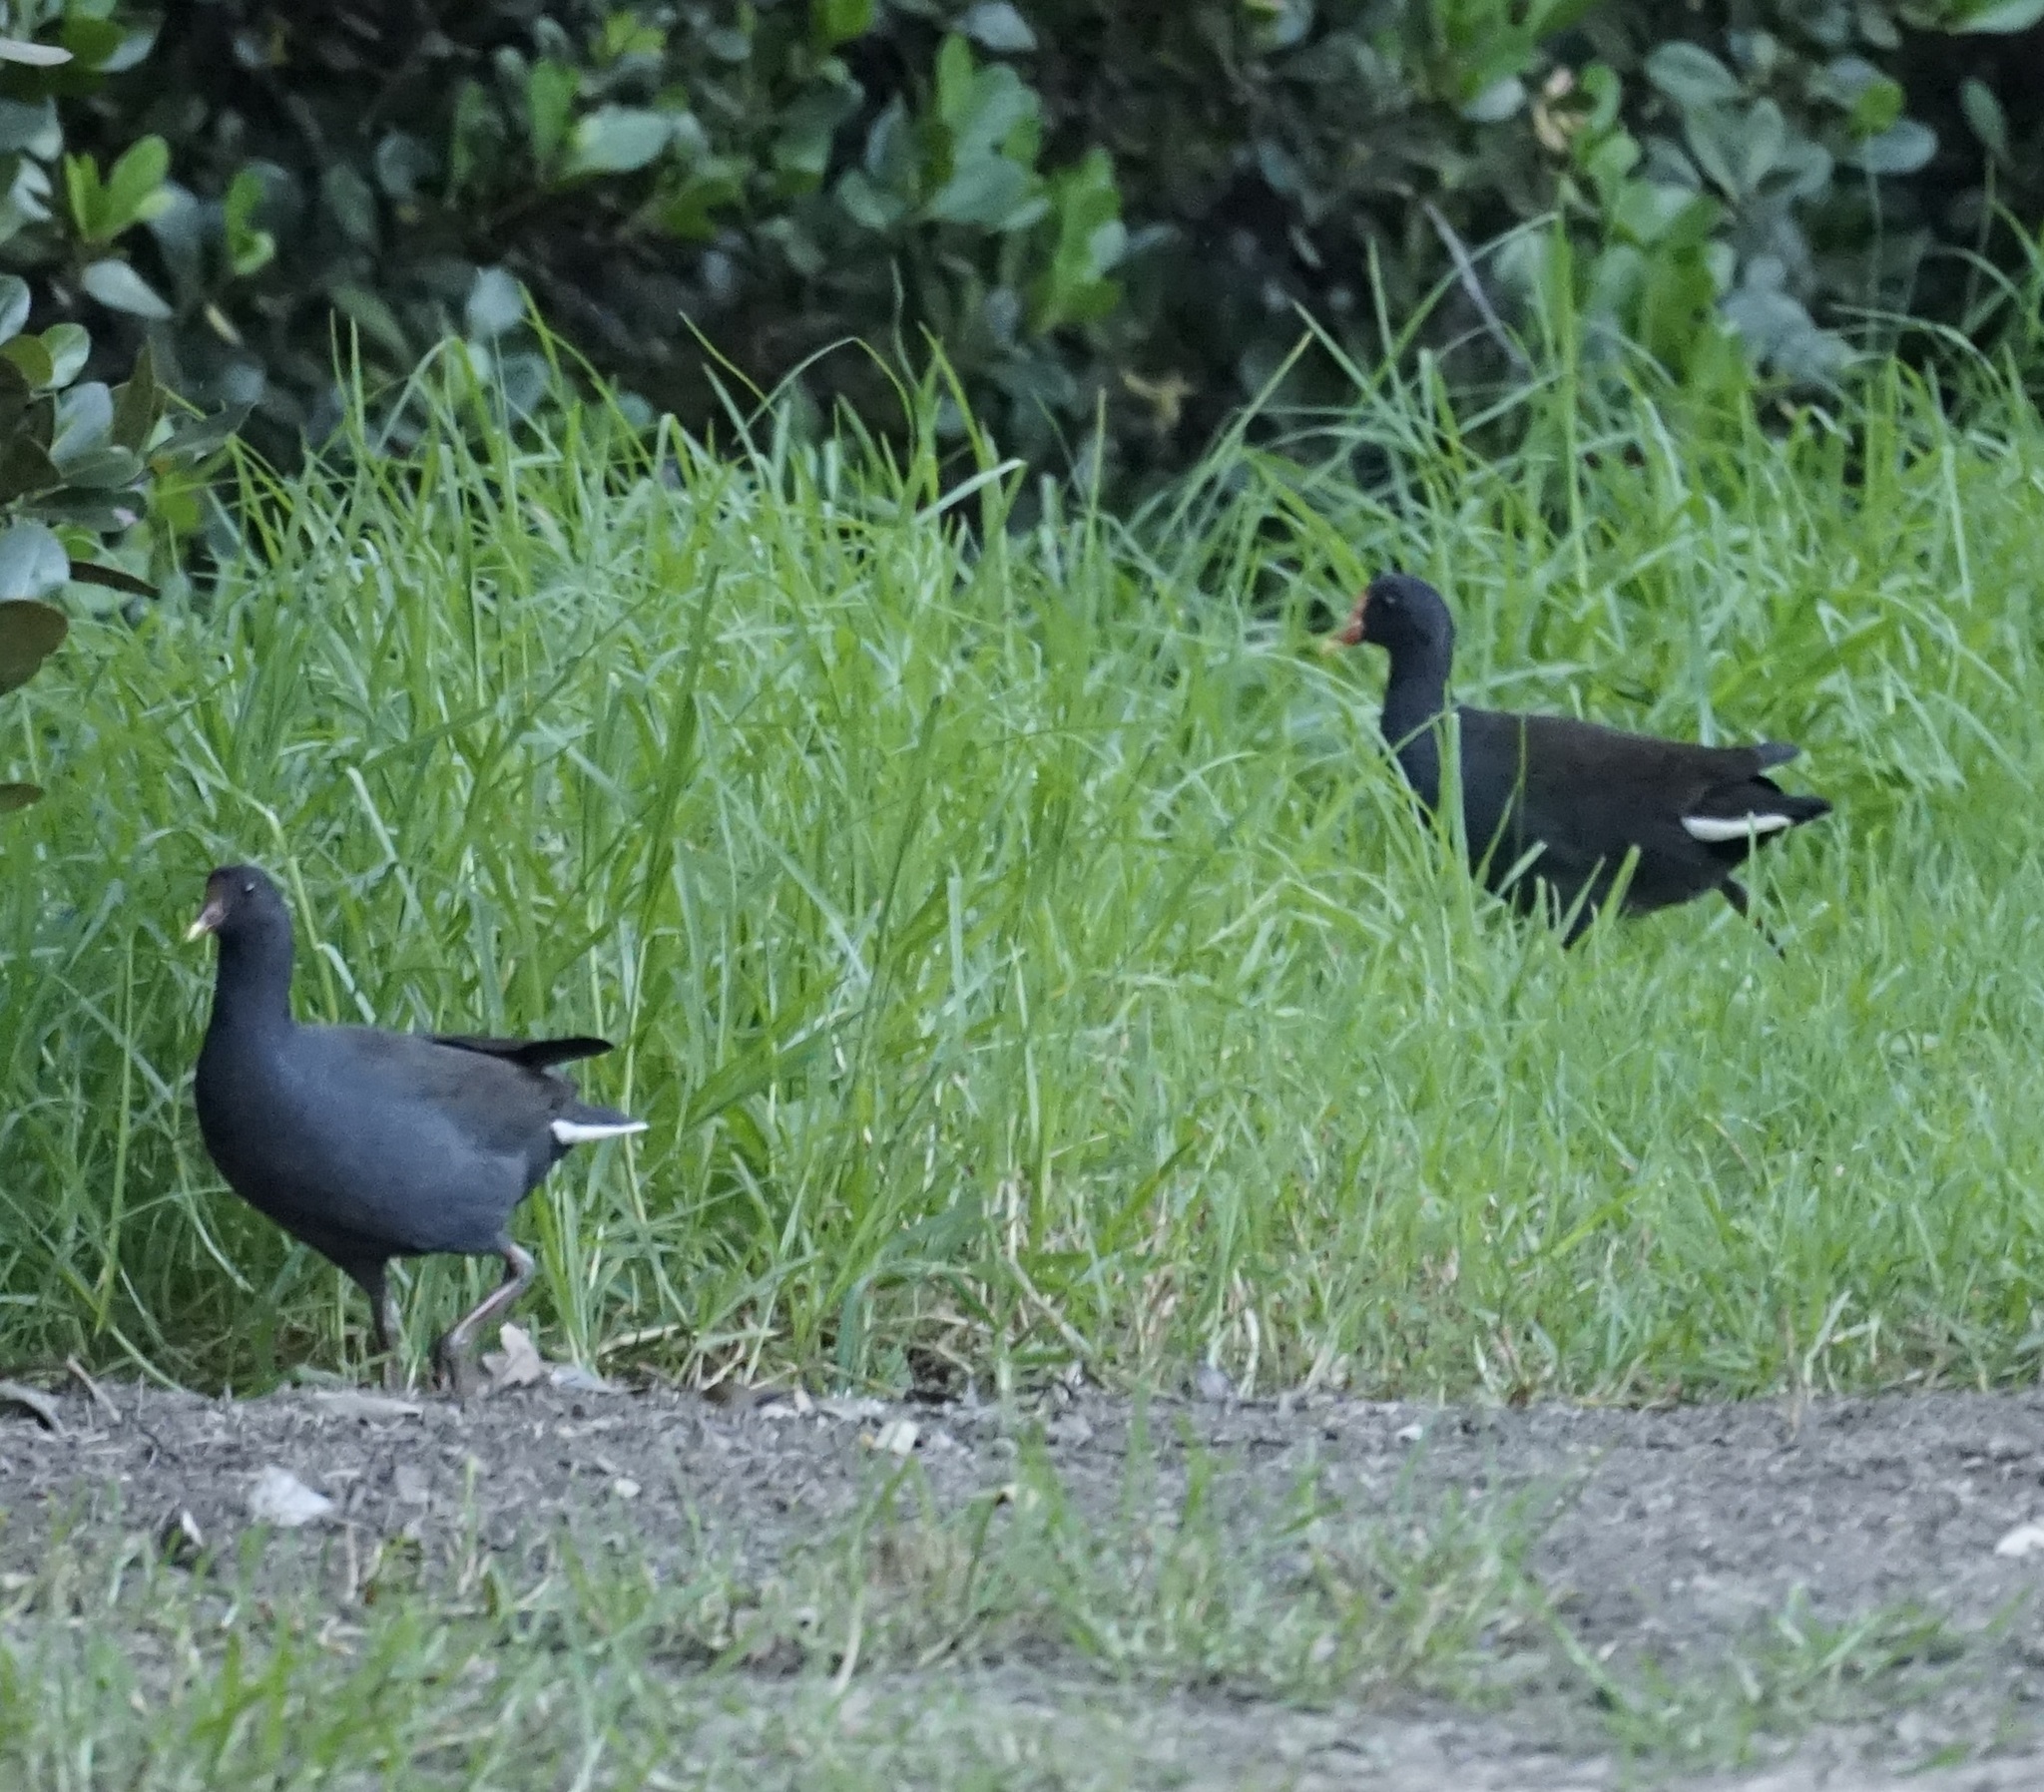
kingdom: Animalia
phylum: Chordata
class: Aves
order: Gruiformes
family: Rallidae
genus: Gallinula
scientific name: Gallinula tenebrosa
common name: Dusky moorhen
